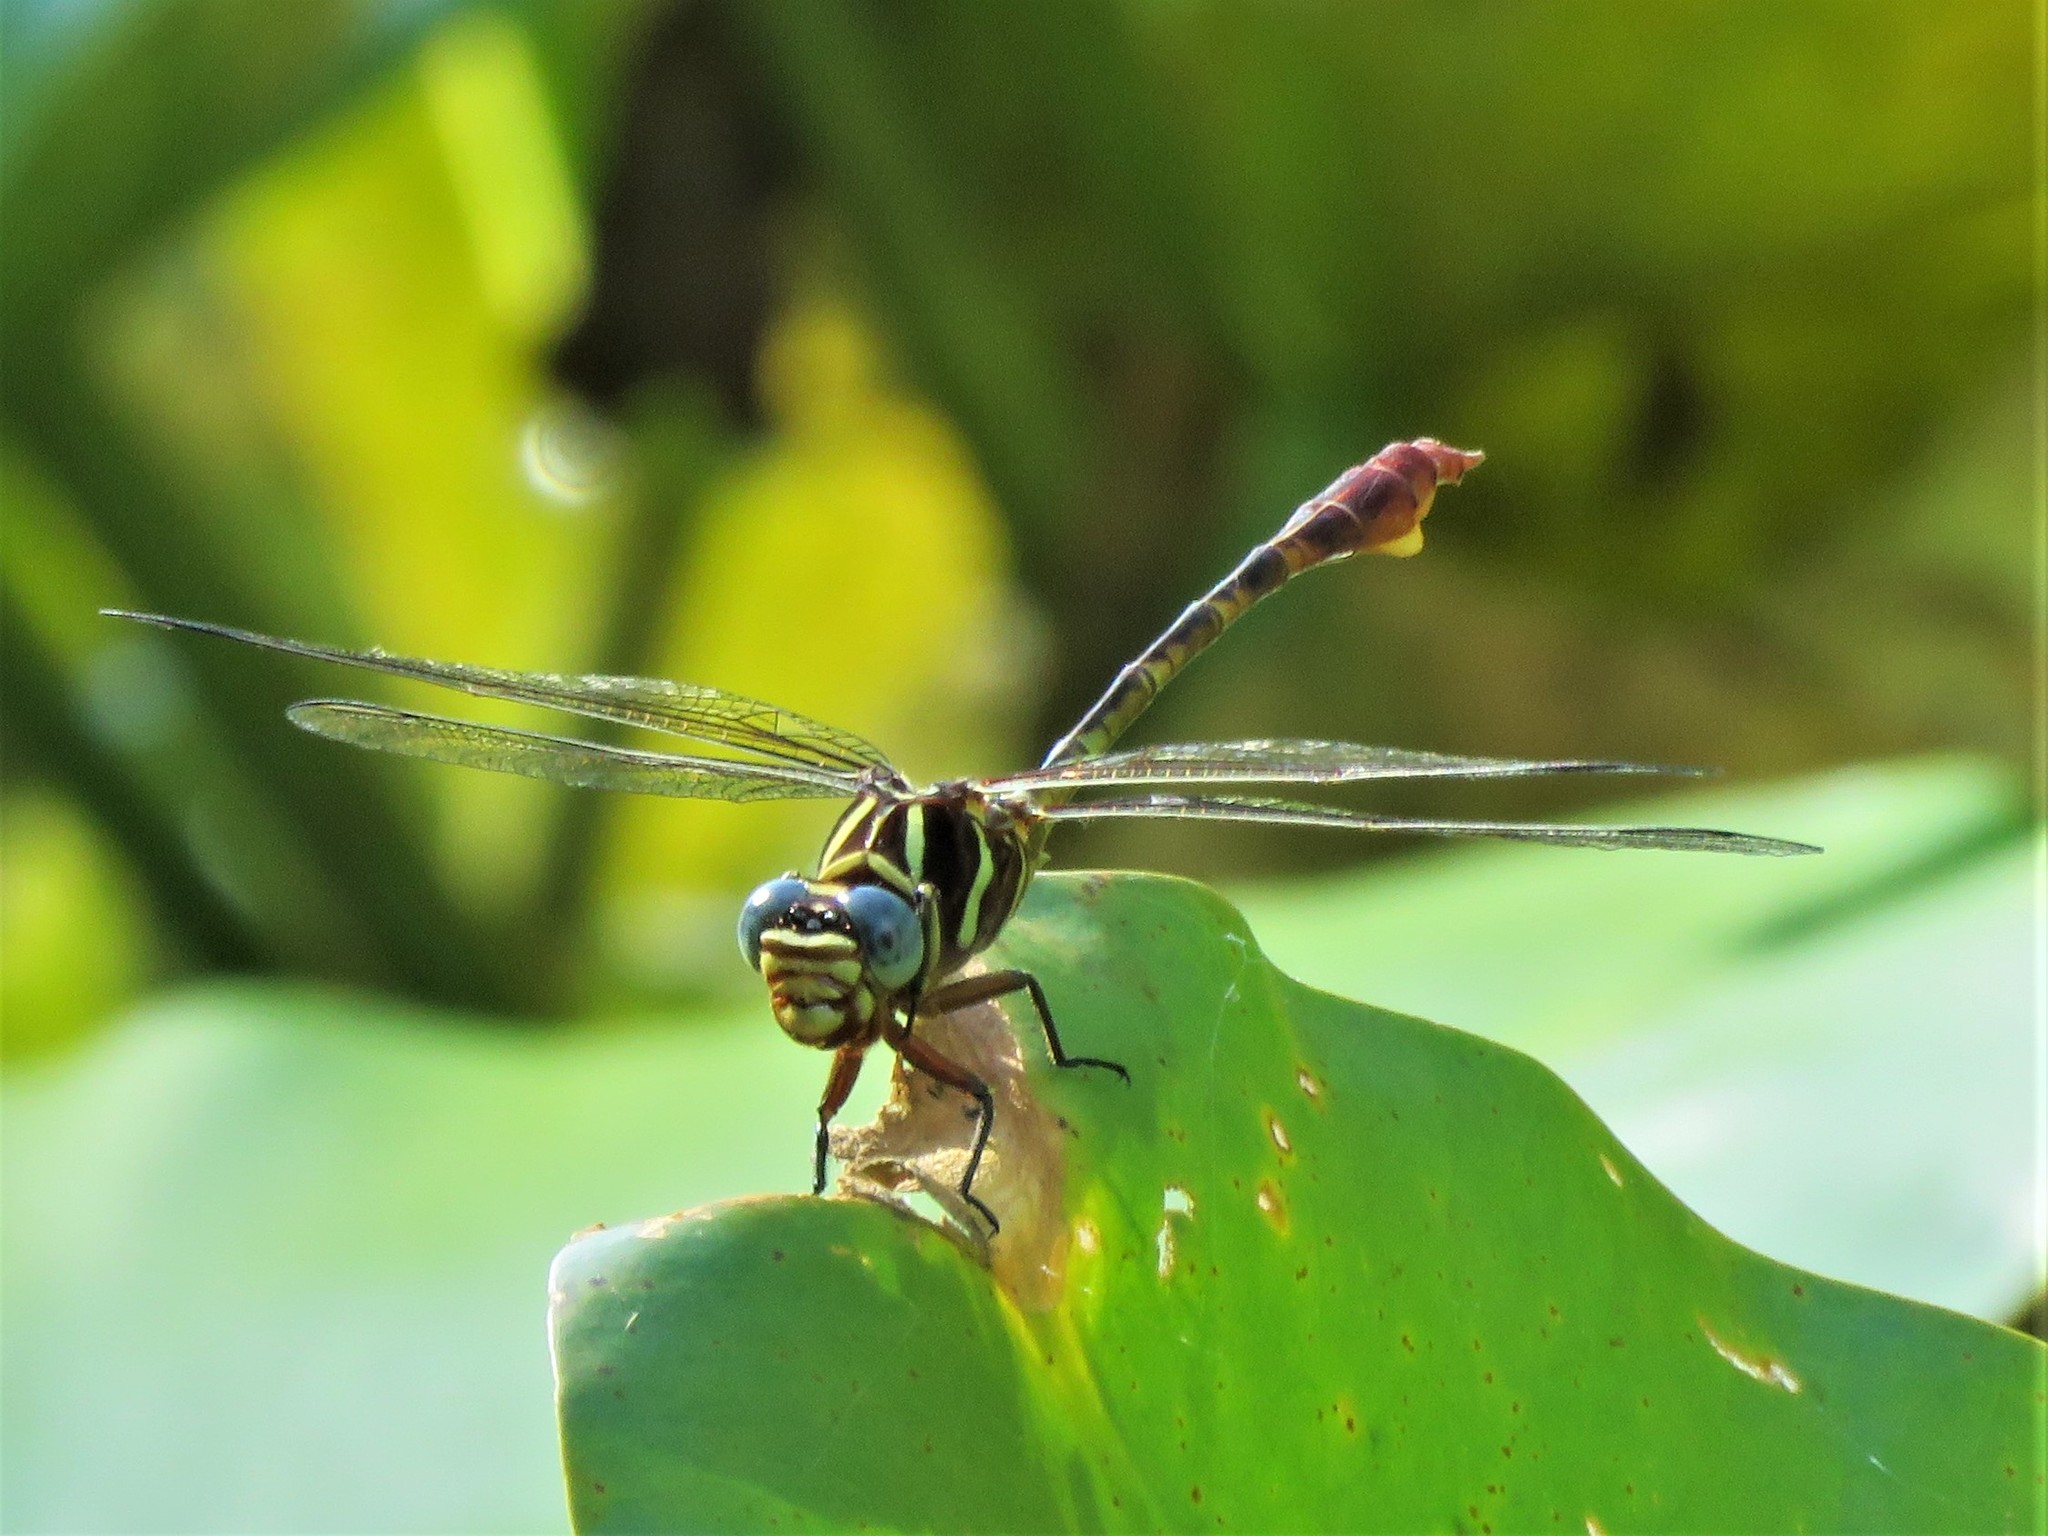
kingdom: Animalia
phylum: Arthropoda
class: Insecta
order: Odonata
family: Gomphidae
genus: Aphylla
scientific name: Aphylla williamsoni
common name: Two-striped forceptail
